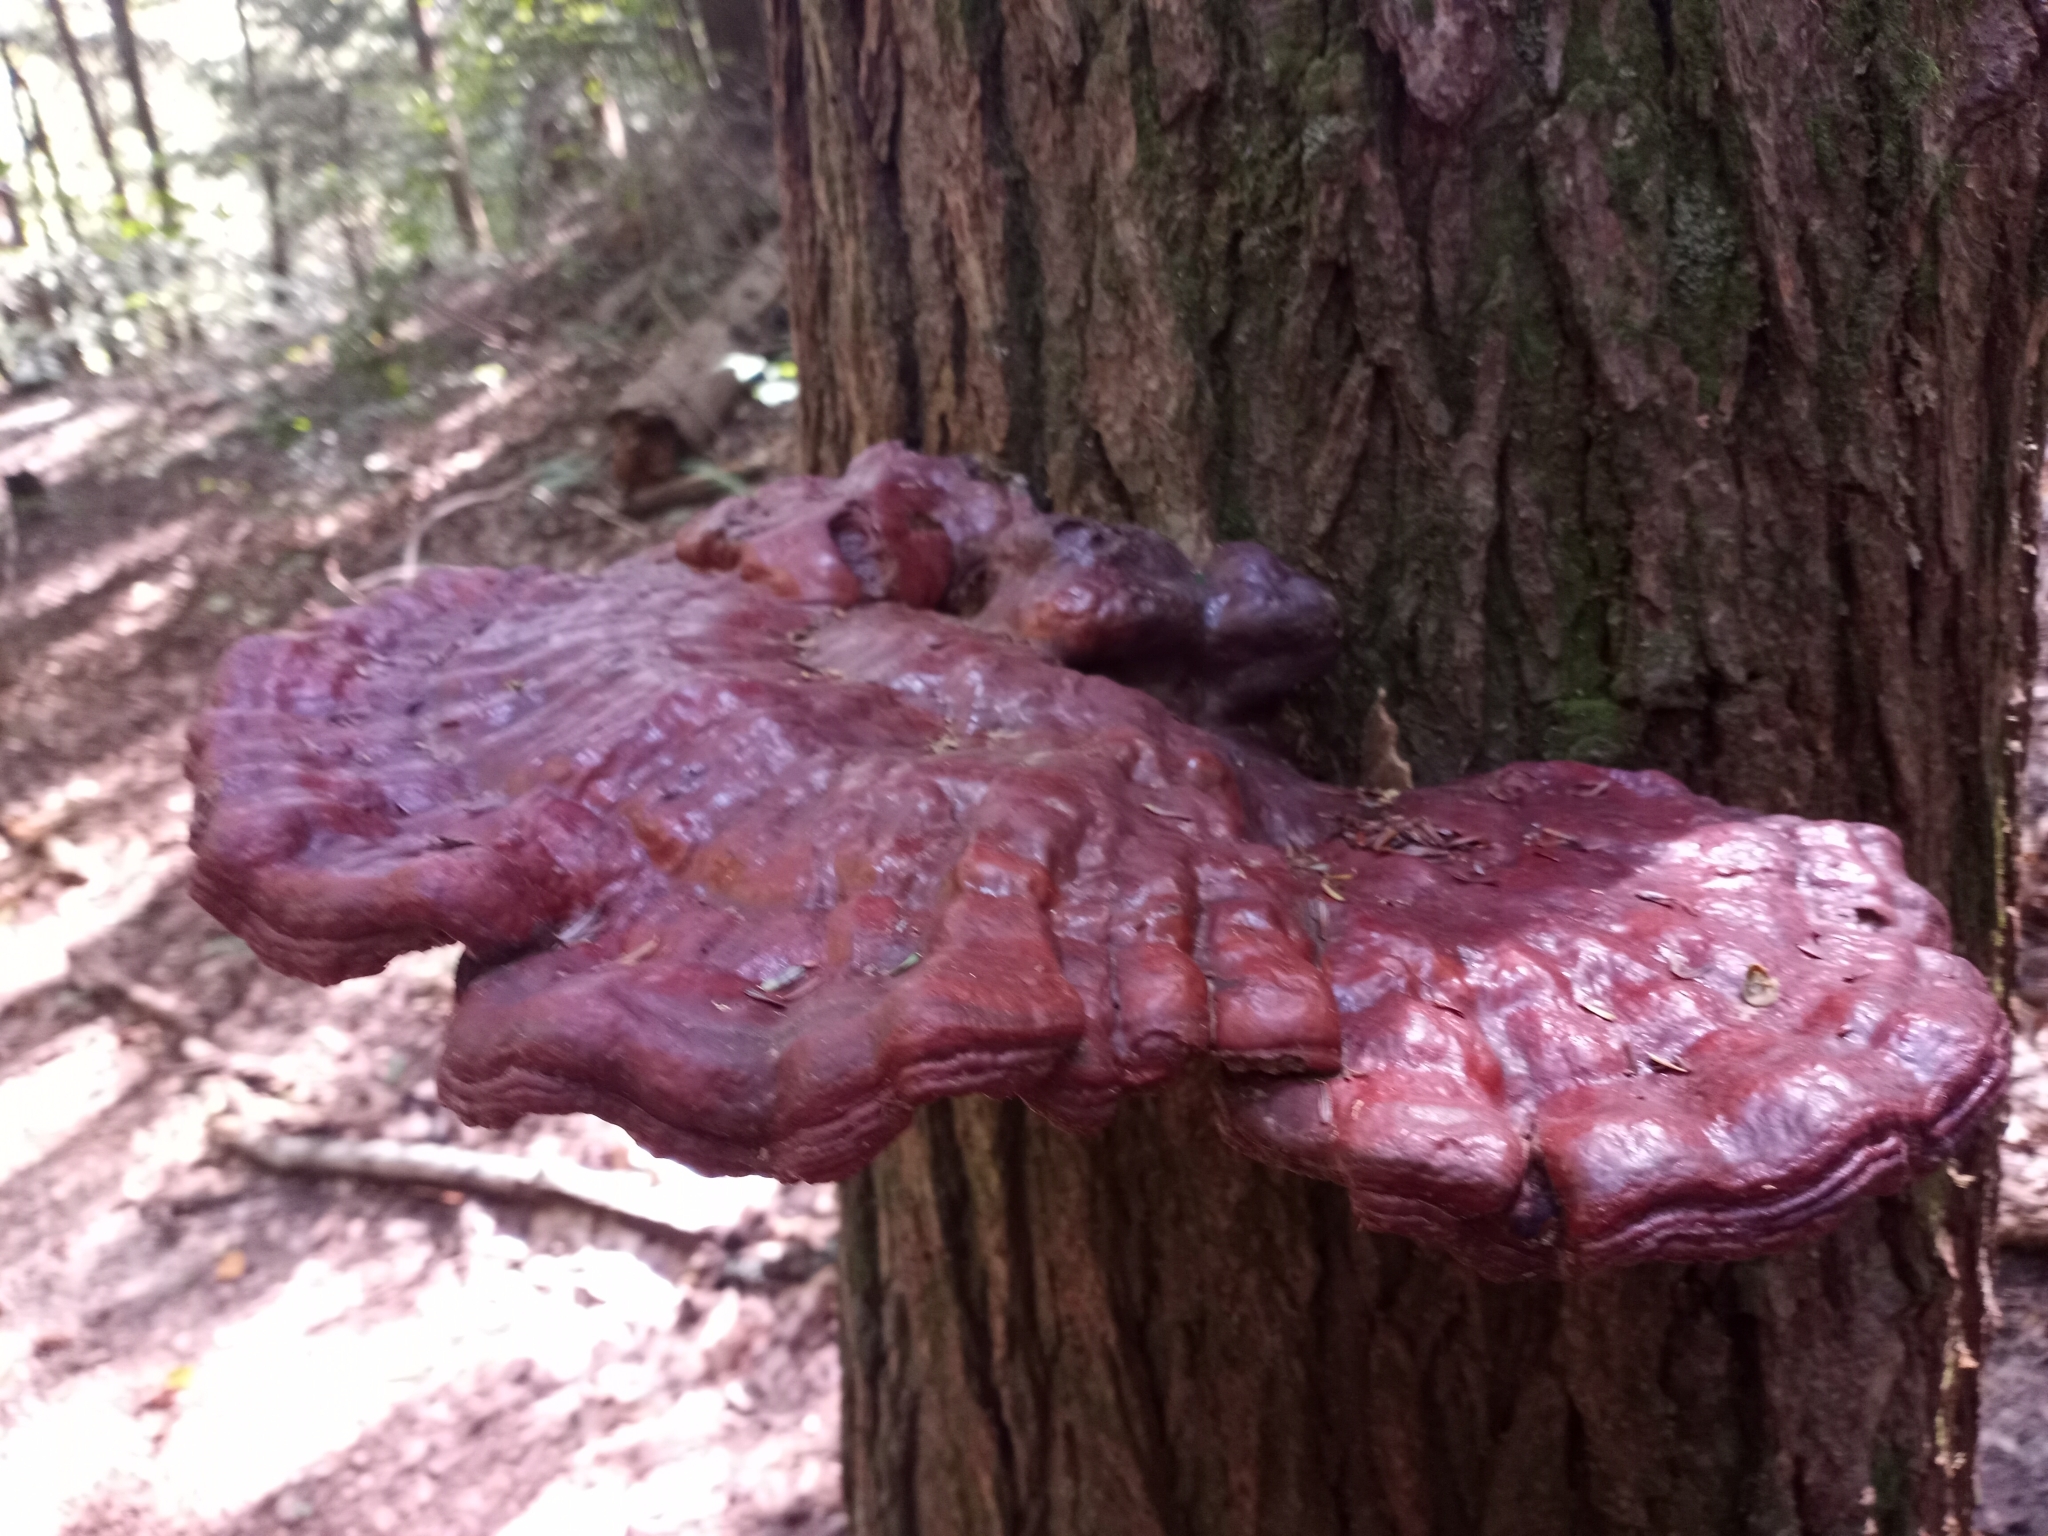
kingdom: Fungi
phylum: Basidiomycota
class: Agaricomycetes
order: Polyporales
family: Polyporaceae
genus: Ganoderma
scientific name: Ganoderma tsugae
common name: Hemlock varnish shelf
